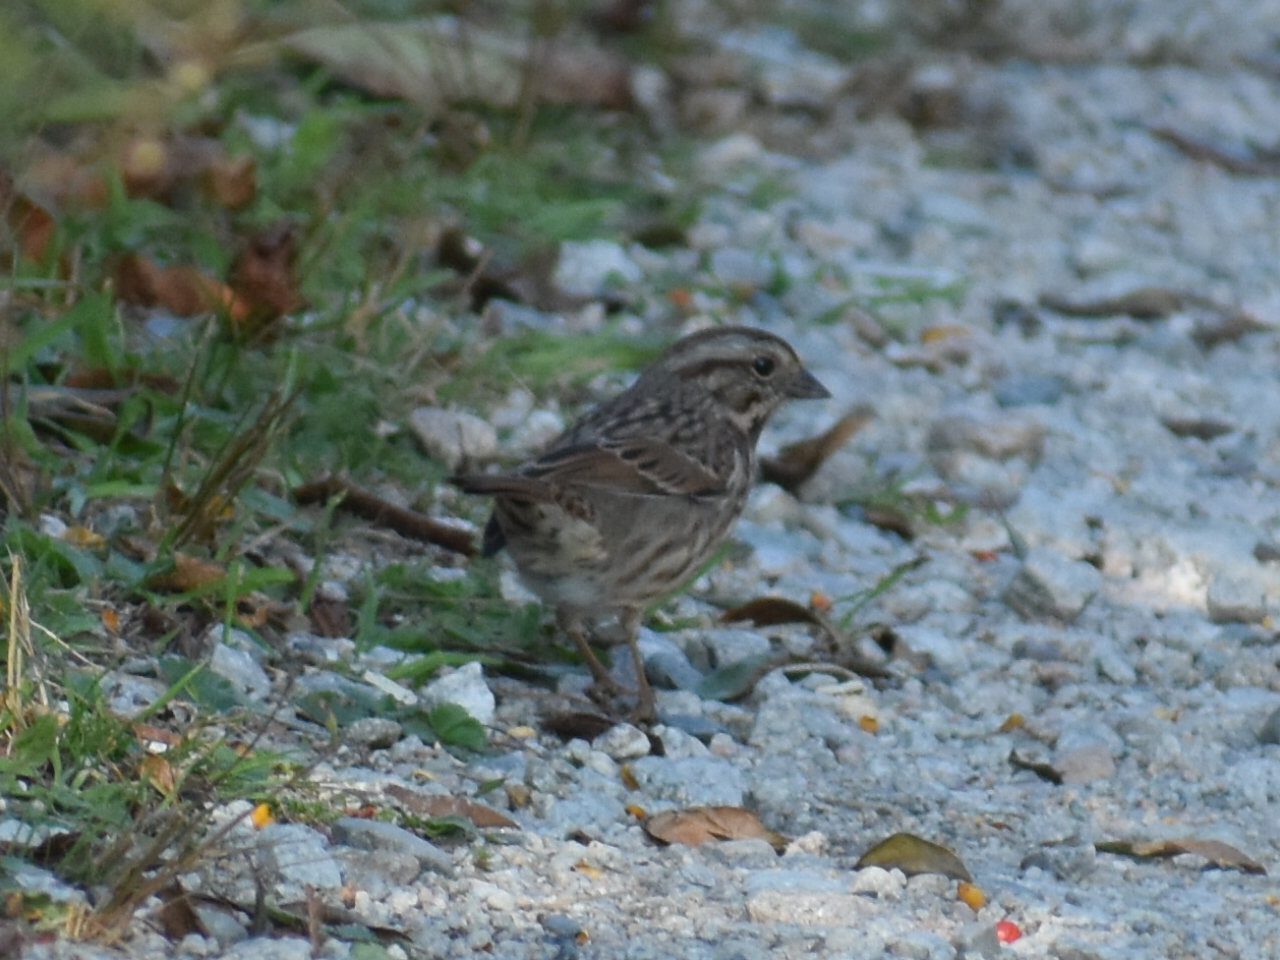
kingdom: Animalia
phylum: Chordata
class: Aves
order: Passeriformes
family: Passerellidae
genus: Melospiza
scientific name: Melospiza melodia
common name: Song sparrow
